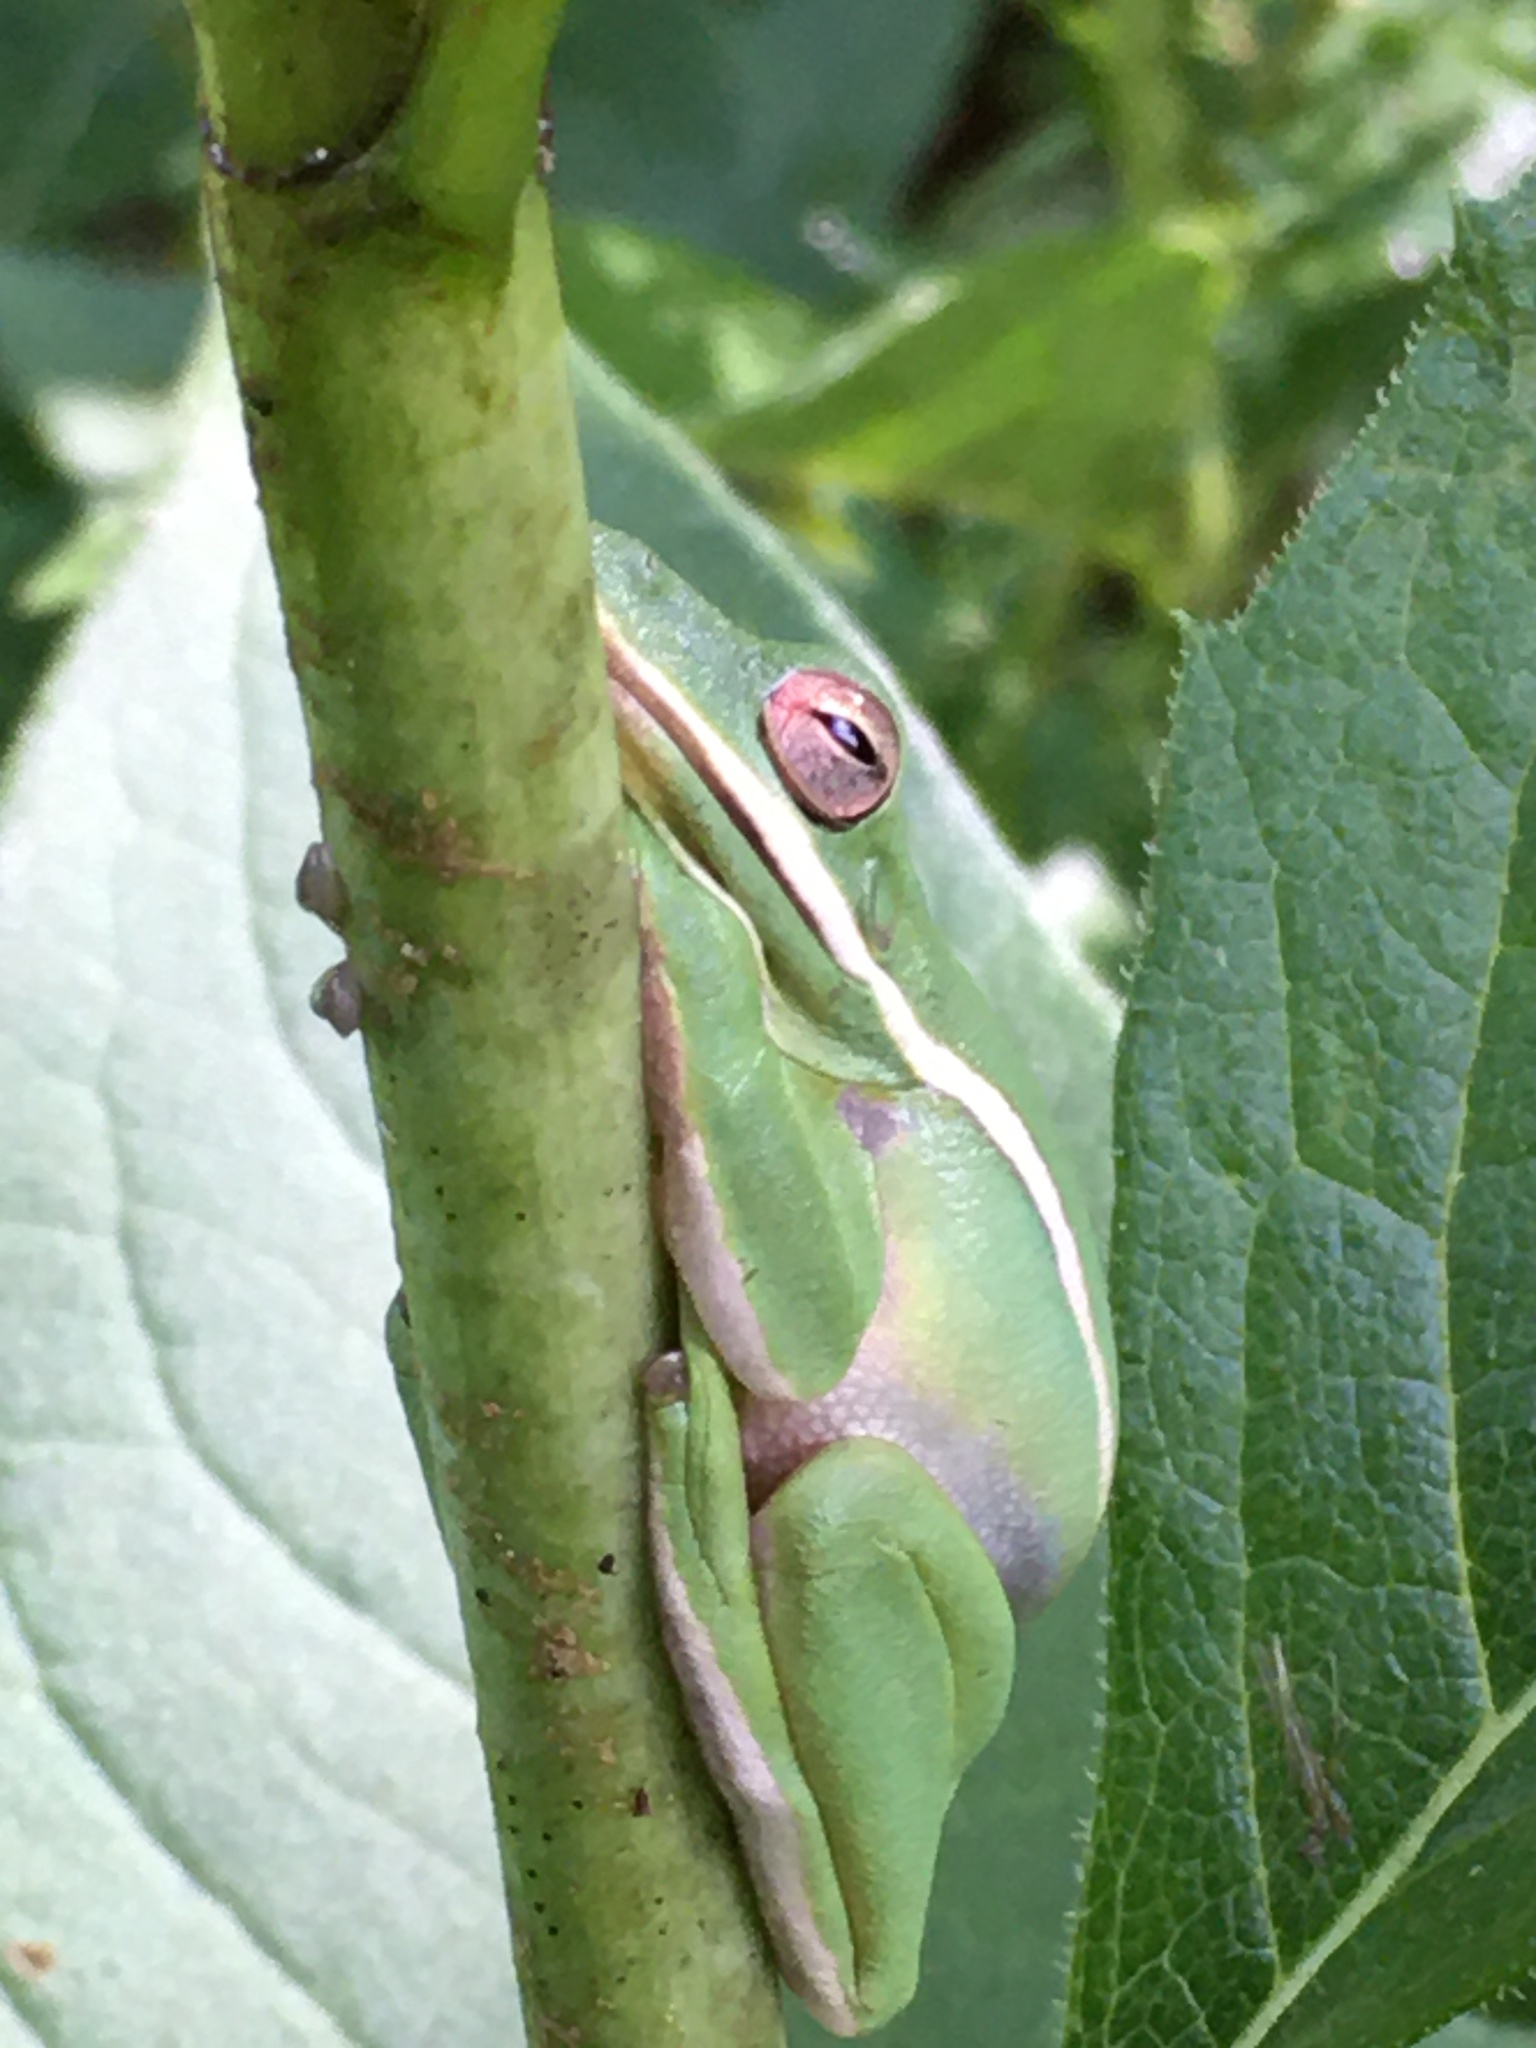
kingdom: Animalia
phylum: Chordata
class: Amphibia
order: Anura
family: Hylidae
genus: Dryophytes
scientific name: Dryophytes cinereus
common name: Green treefrog
